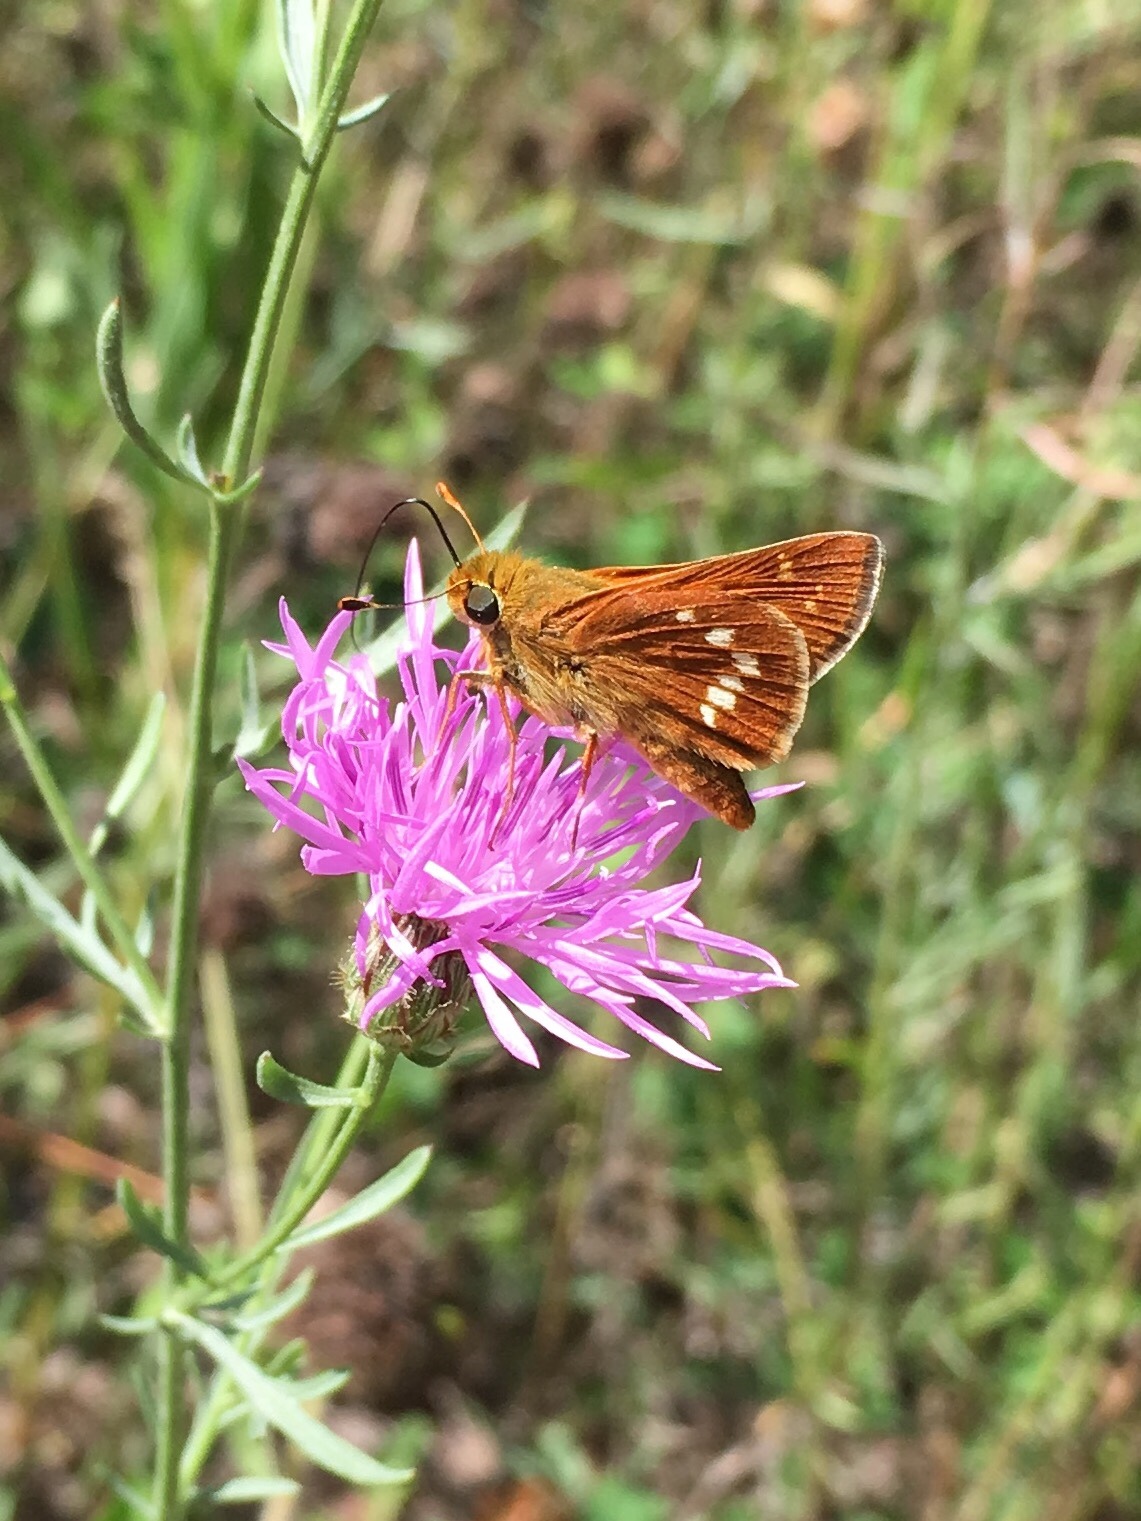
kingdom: Animalia
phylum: Arthropoda
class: Insecta
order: Lepidoptera
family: Hesperiidae
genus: Hesperia
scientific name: Hesperia leonardus
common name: Leonard's skipper
